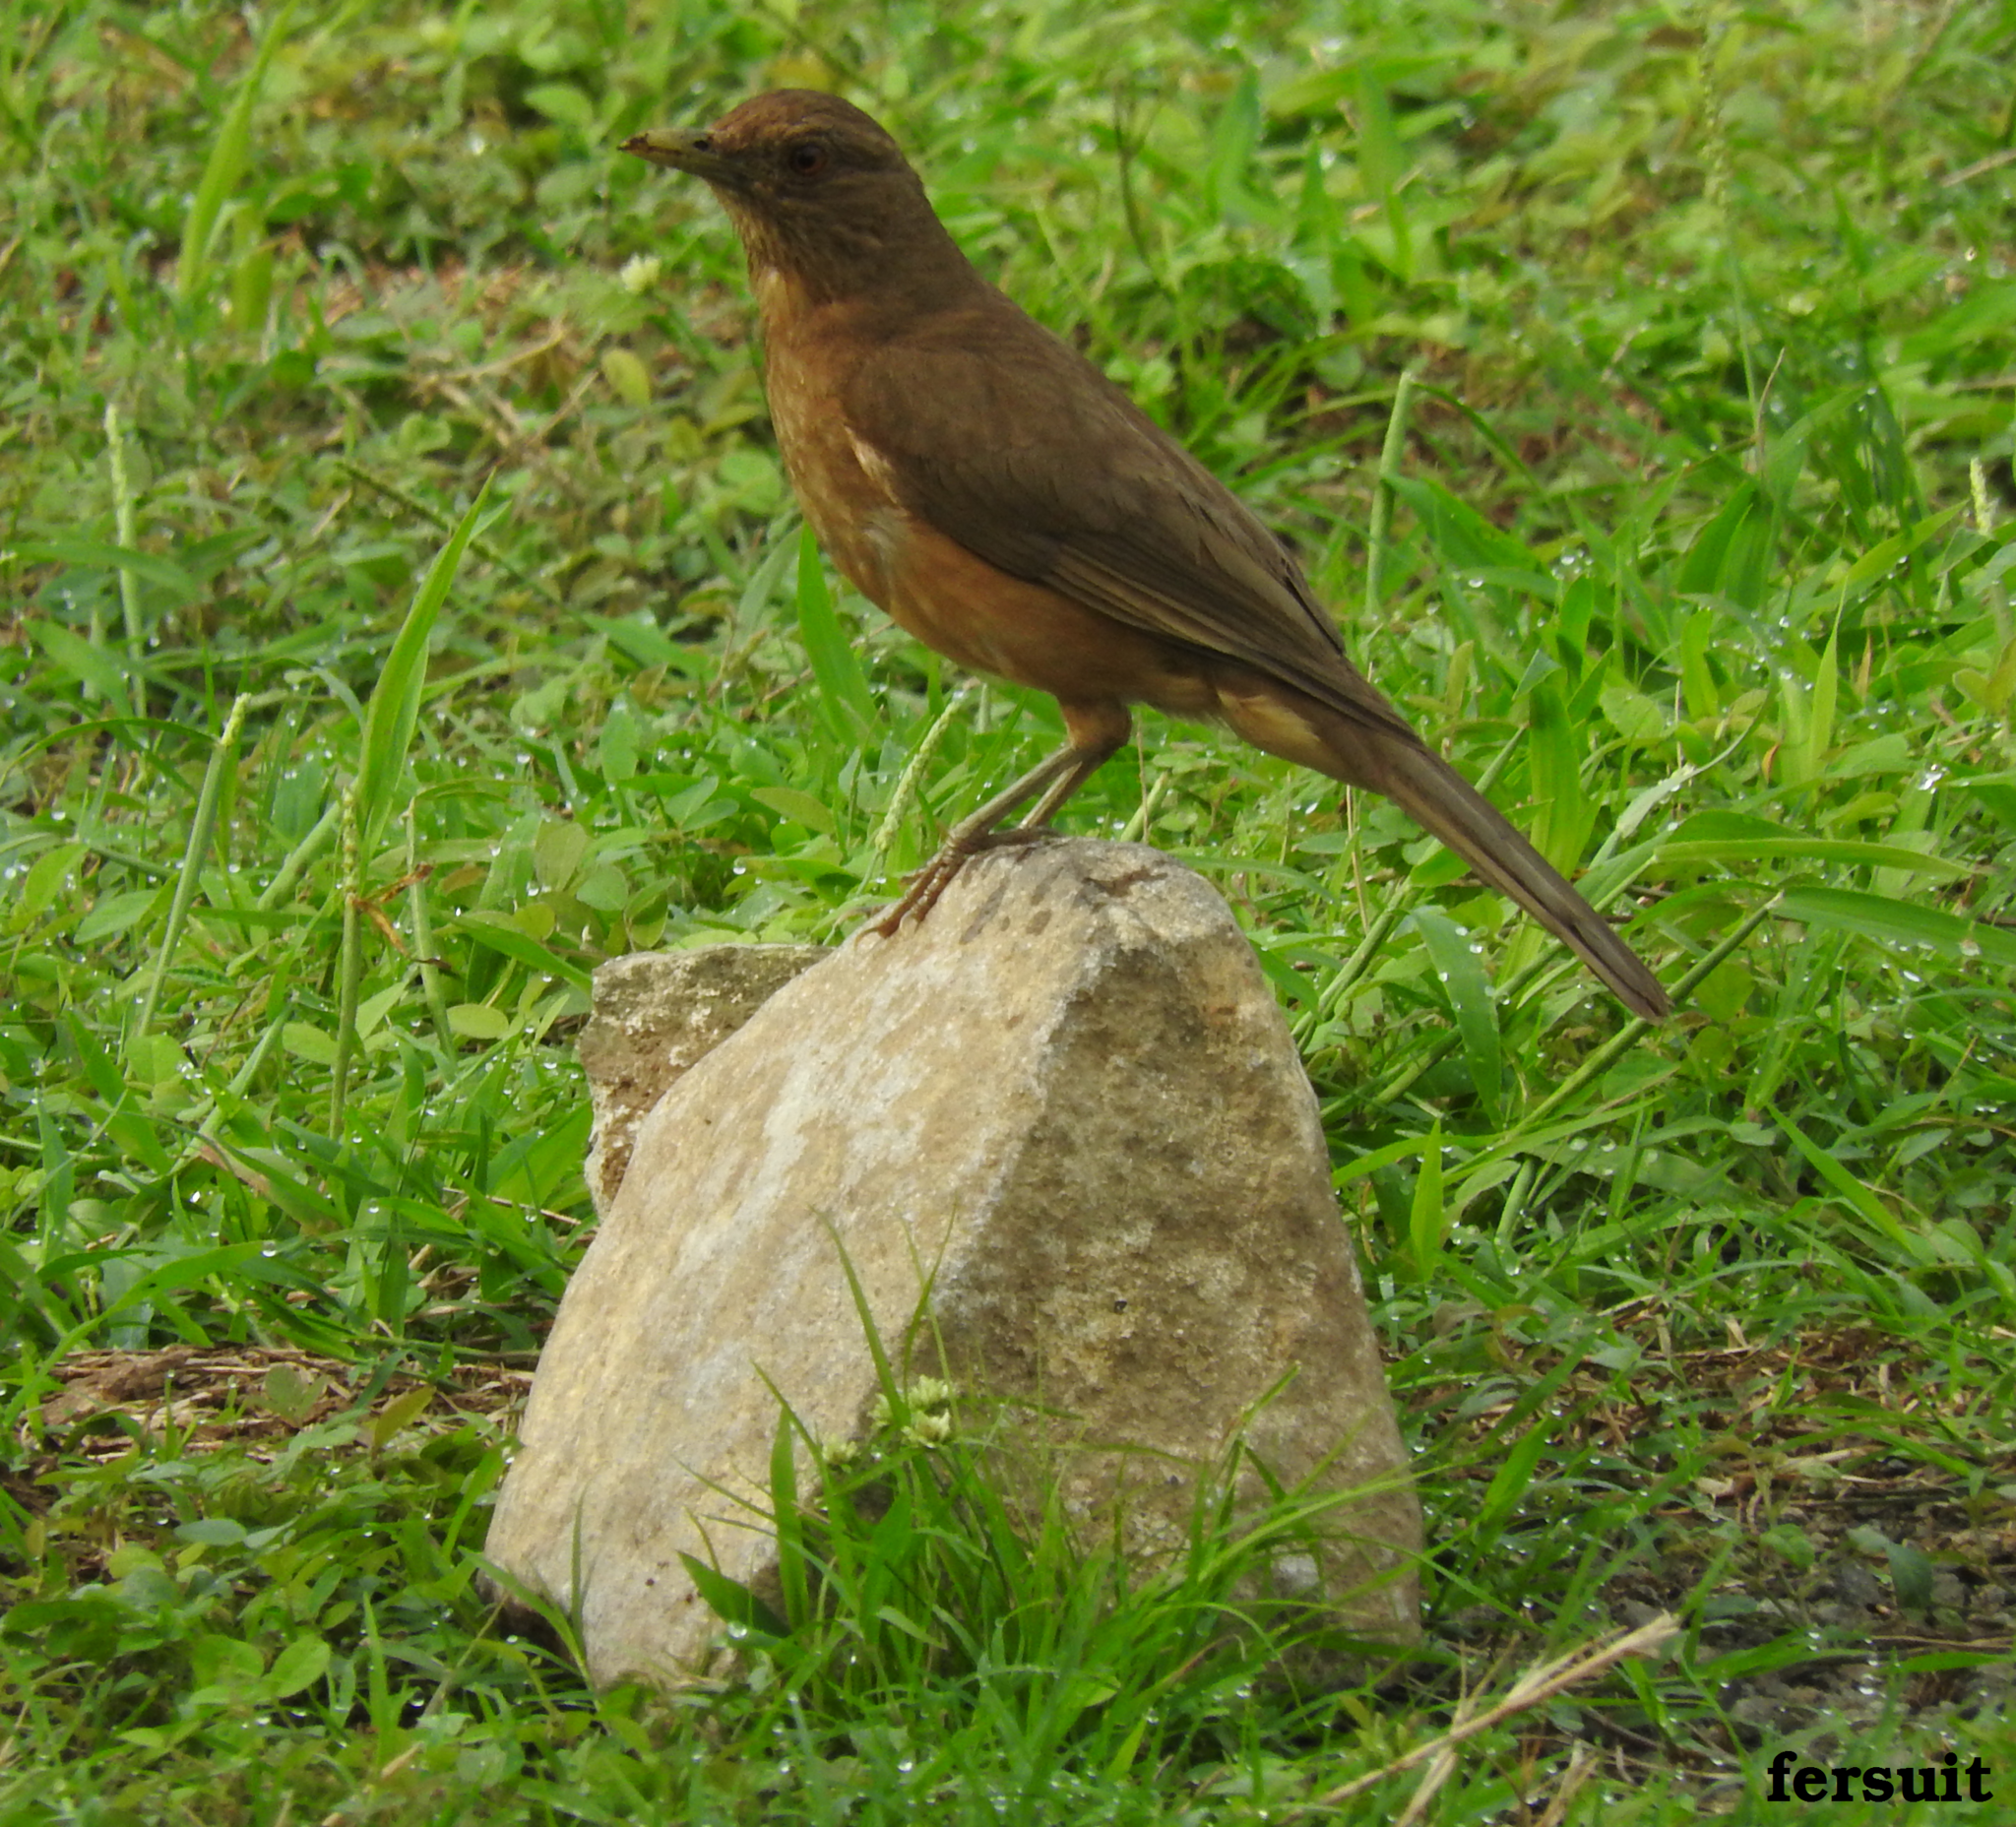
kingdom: Animalia
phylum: Chordata
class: Aves
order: Passeriformes
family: Turdidae
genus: Turdus
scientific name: Turdus grayi
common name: Clay-colored thrush
